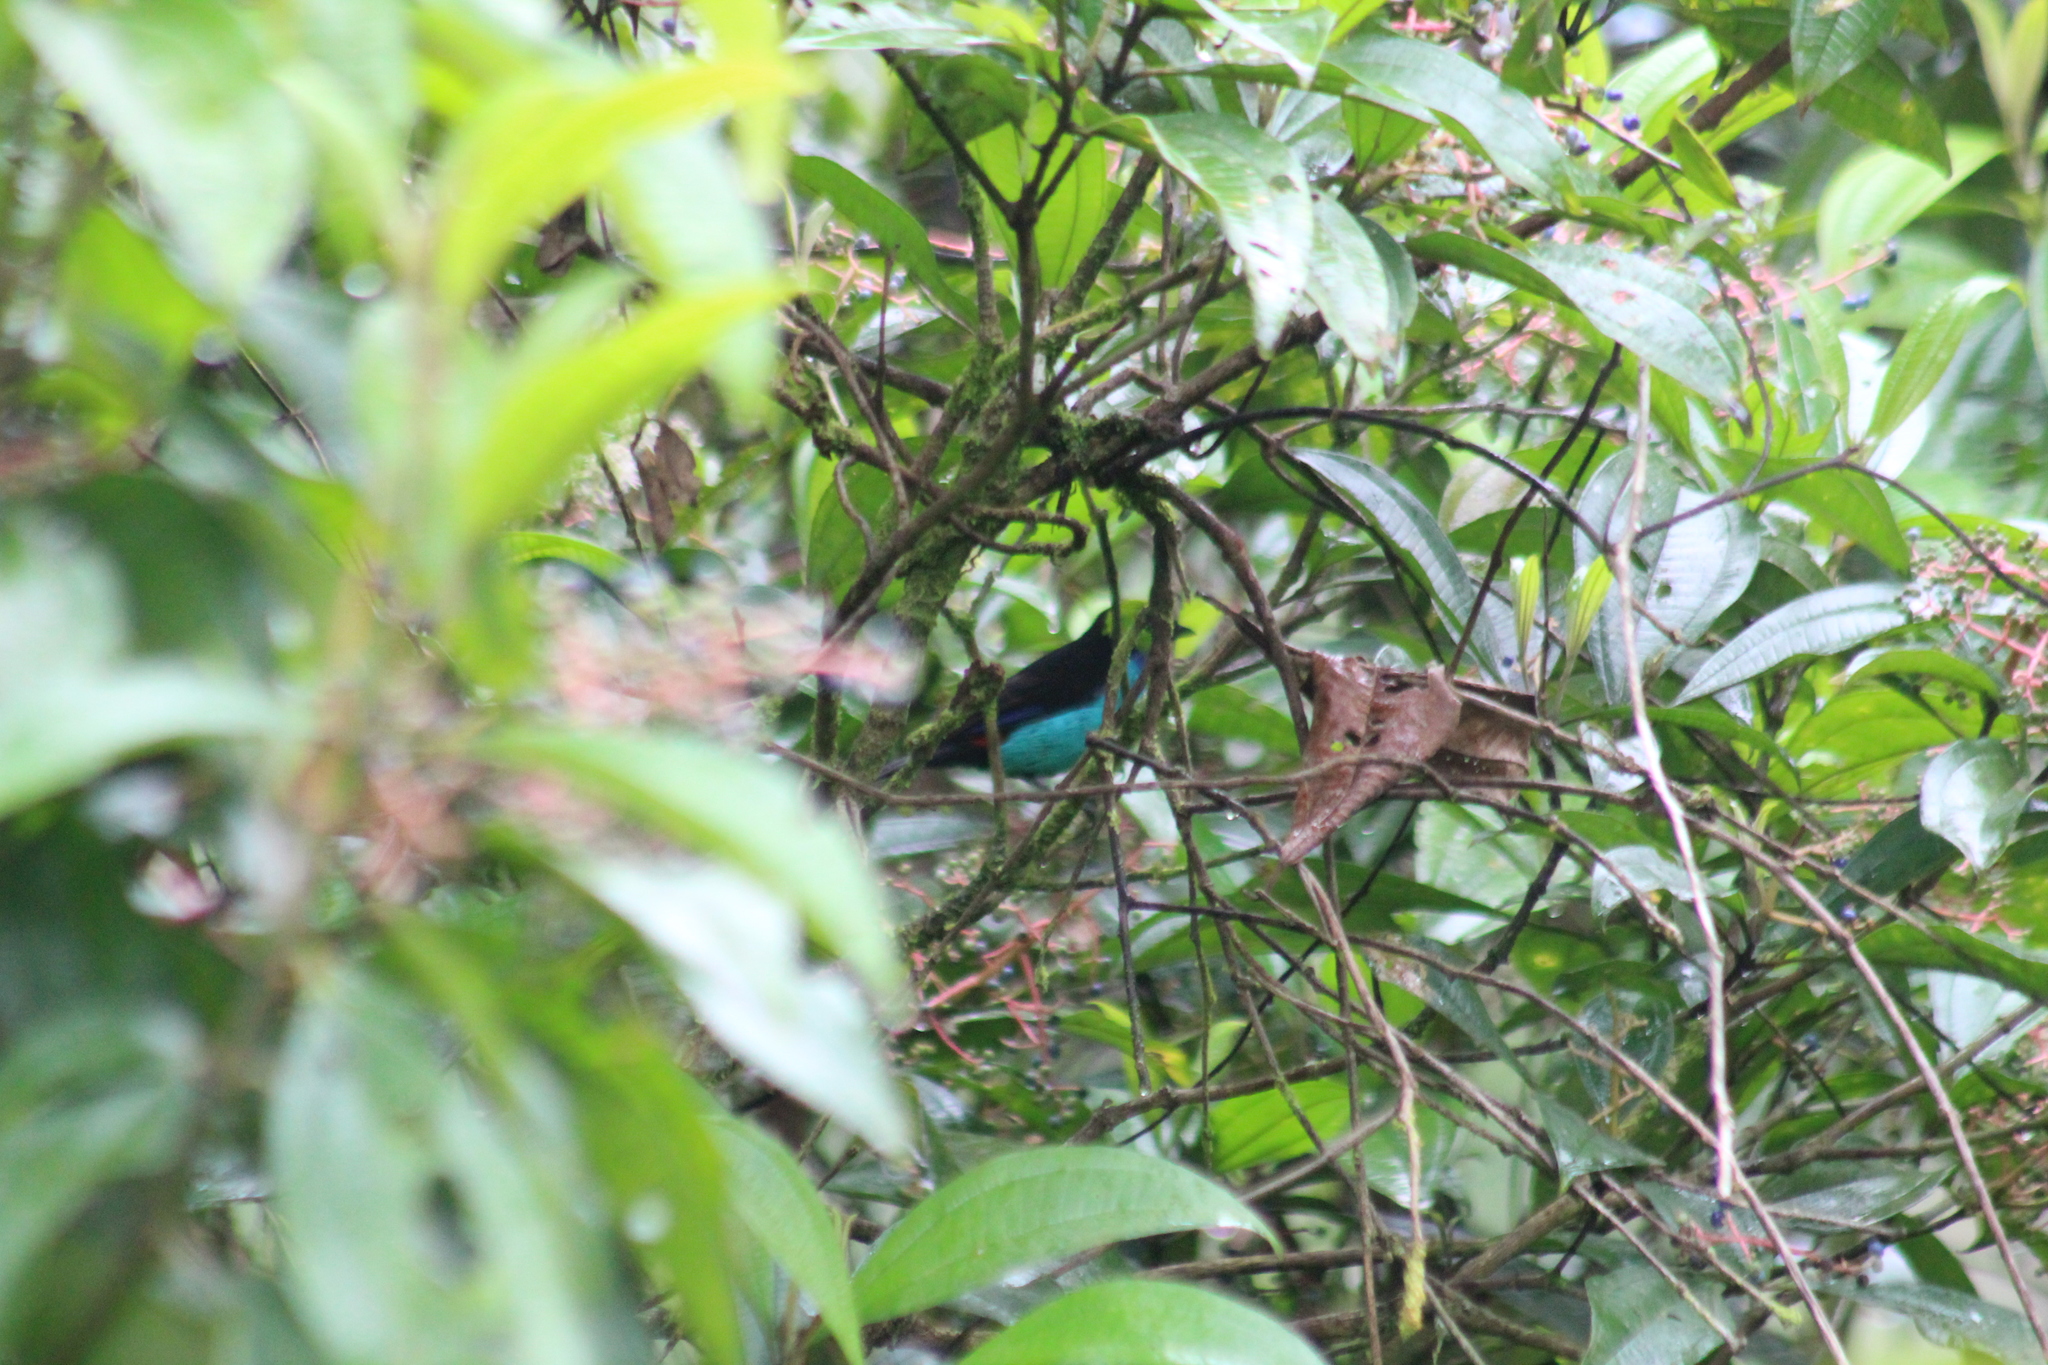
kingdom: Animalia
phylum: Chordata
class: Aves
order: Passeriformes
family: Thraupidae
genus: Tangara
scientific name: Tangara chilensis
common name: Paradise tanager
